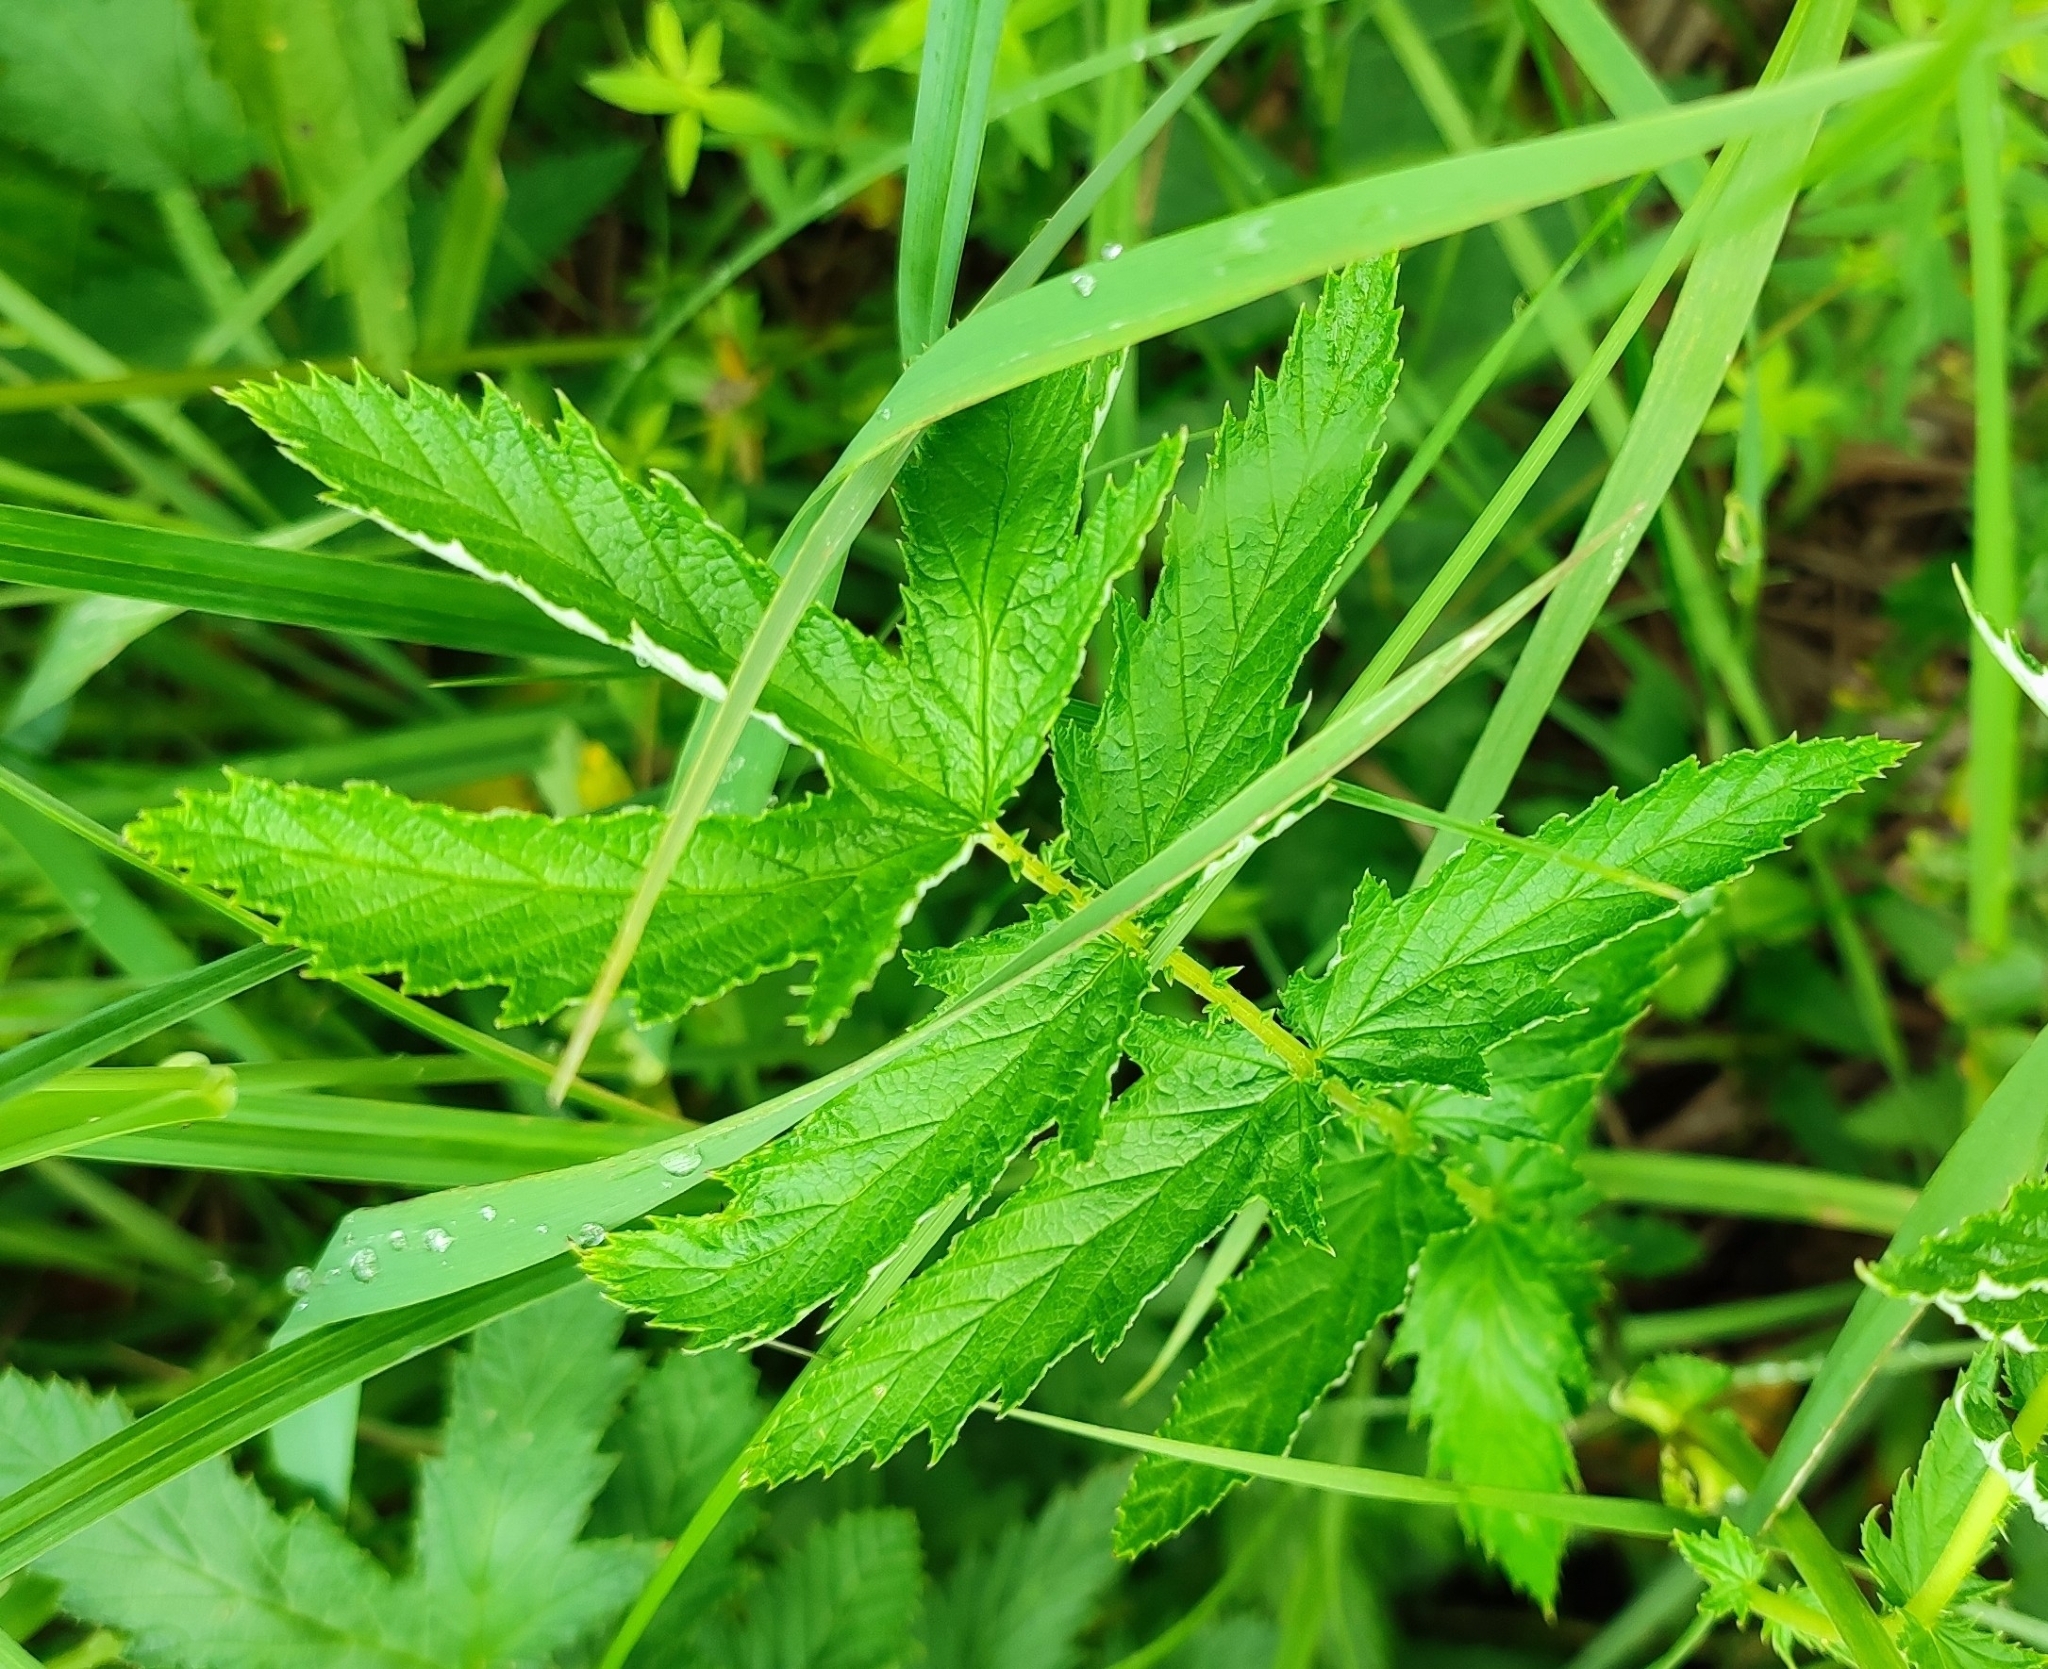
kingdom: Plantae
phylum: Tracheophyta
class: Magnoliopsida
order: Rosales
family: Rosaceae
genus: Filipendula
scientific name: Filipendula ulmaria
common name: Meadowsweet
